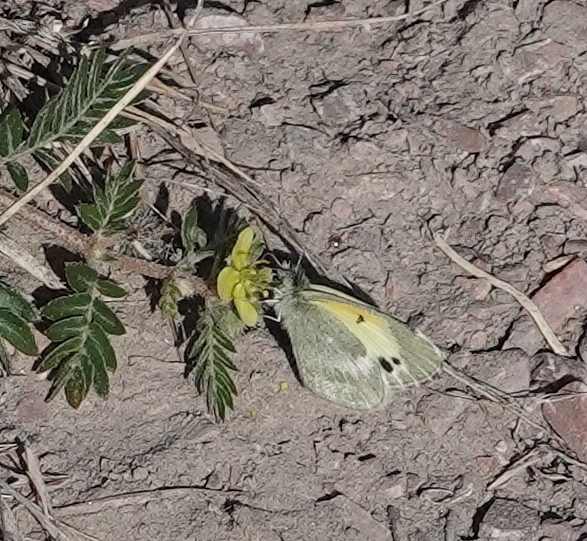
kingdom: Animalia
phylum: Arthropoda
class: Insecta
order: Lepidoptera
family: Pieridae
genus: Nathalis
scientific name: Nathalis iole
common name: Dainty sulphur
